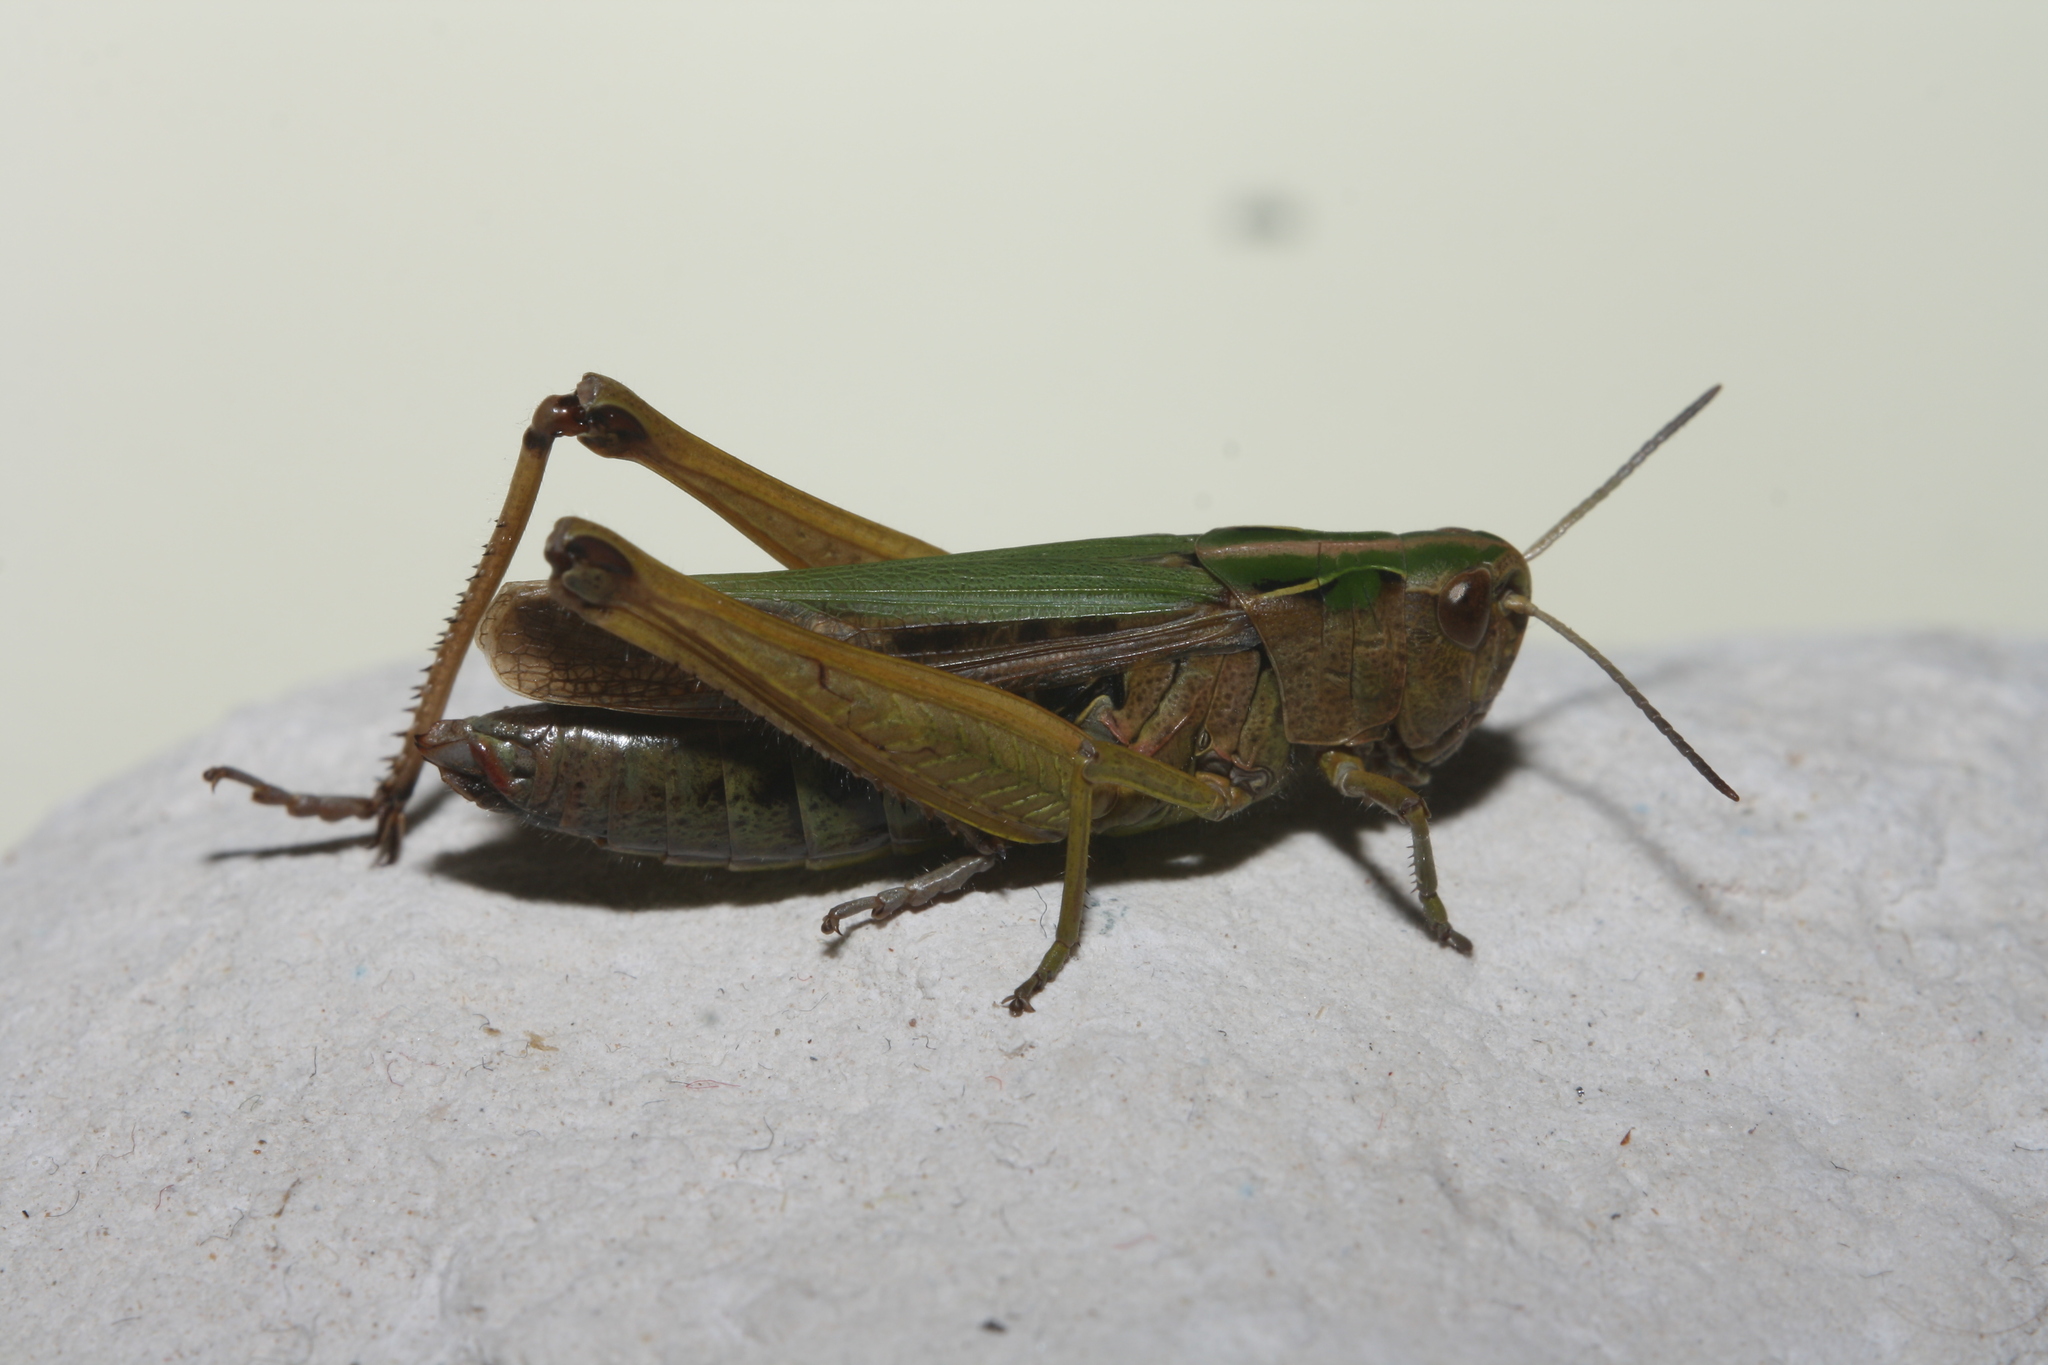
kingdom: Animalia
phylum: Arthropoda
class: Insecta
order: Orthoptera
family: Acrididae
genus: Omocestus
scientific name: Omocestus viridulus
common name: Common green grasshopper
